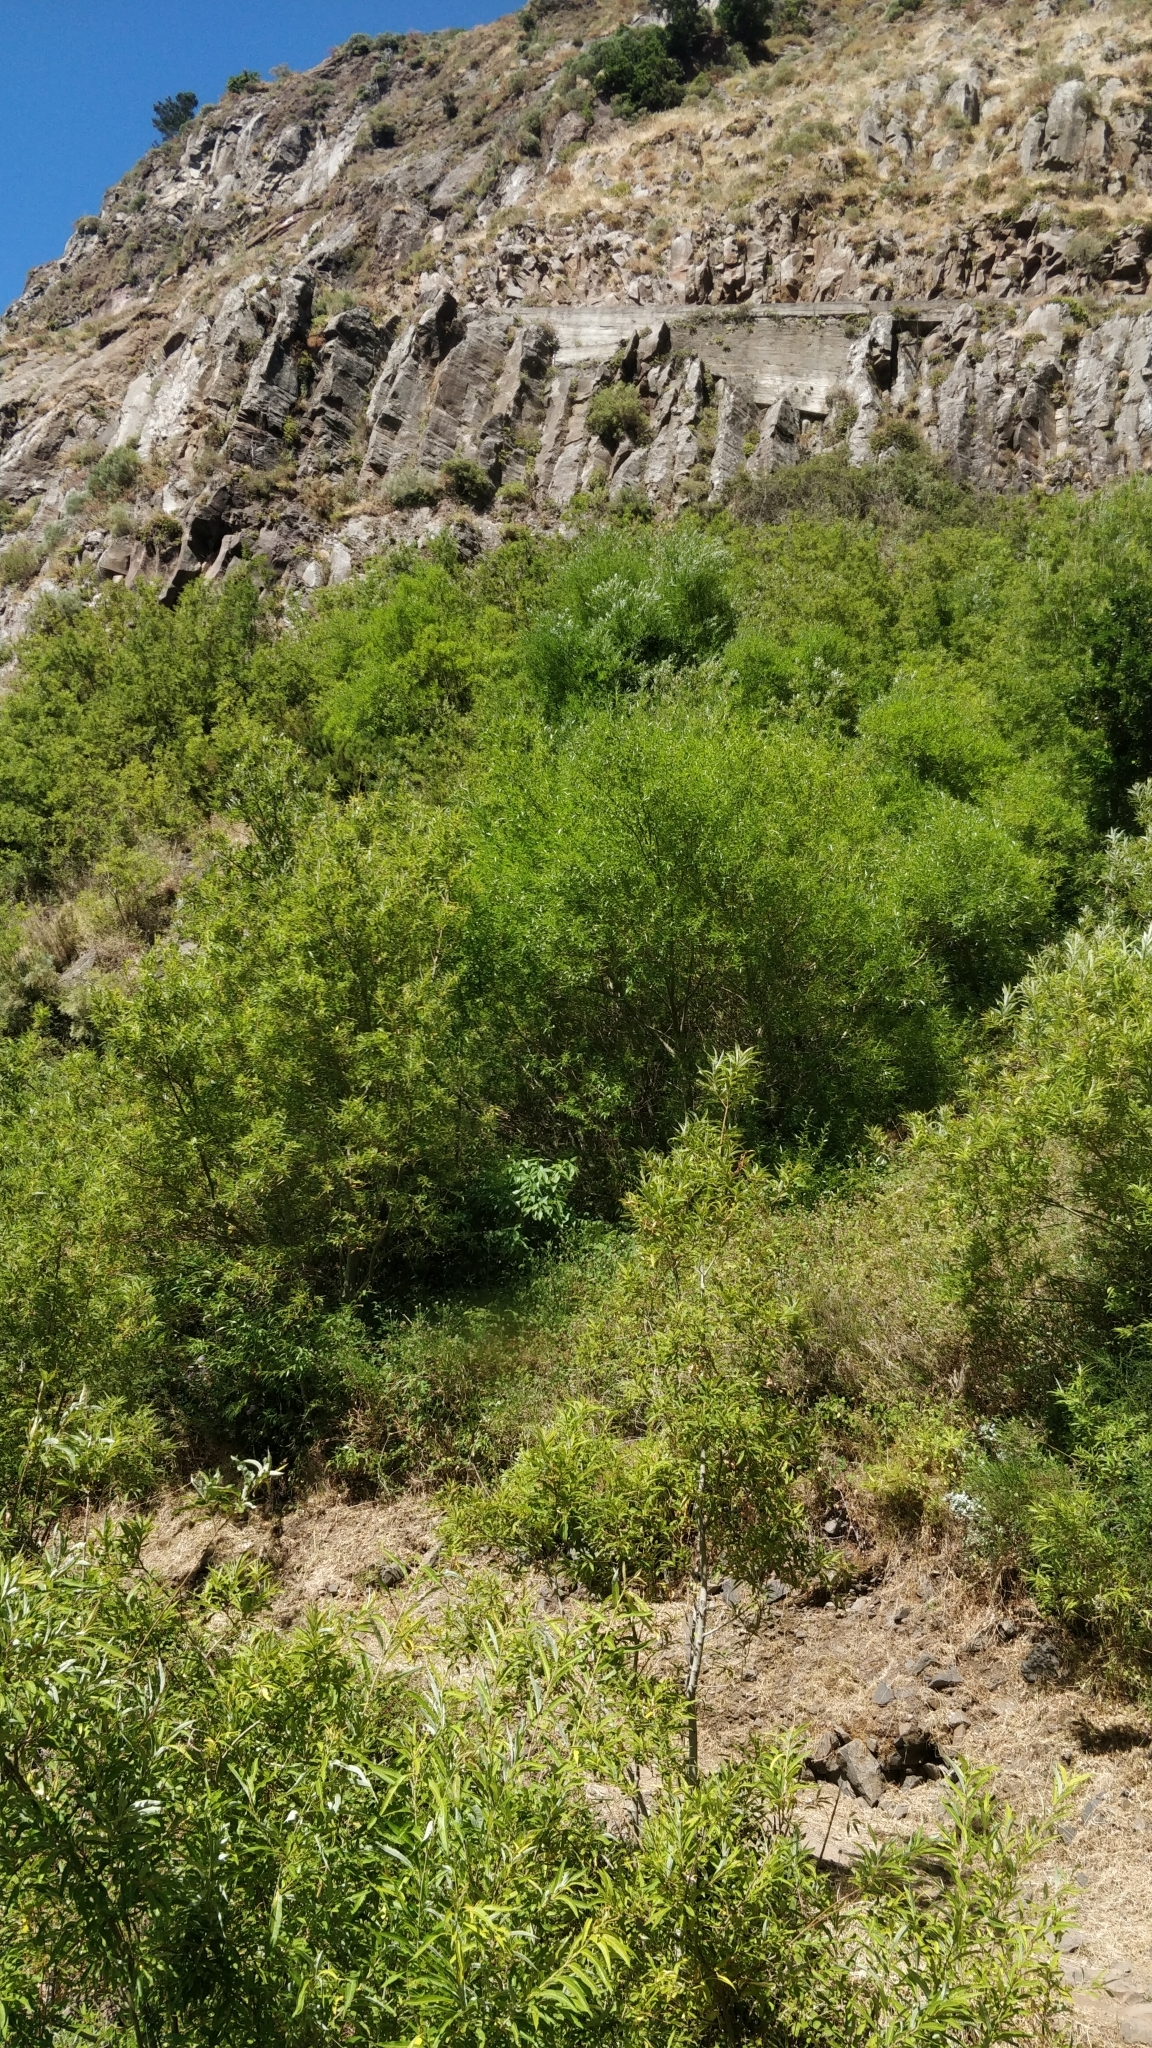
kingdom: Plantae
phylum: Tracheophyta
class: Magnoliopsida
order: Malpighiales
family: Salicaceae
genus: Salix
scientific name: Salix canariensis
